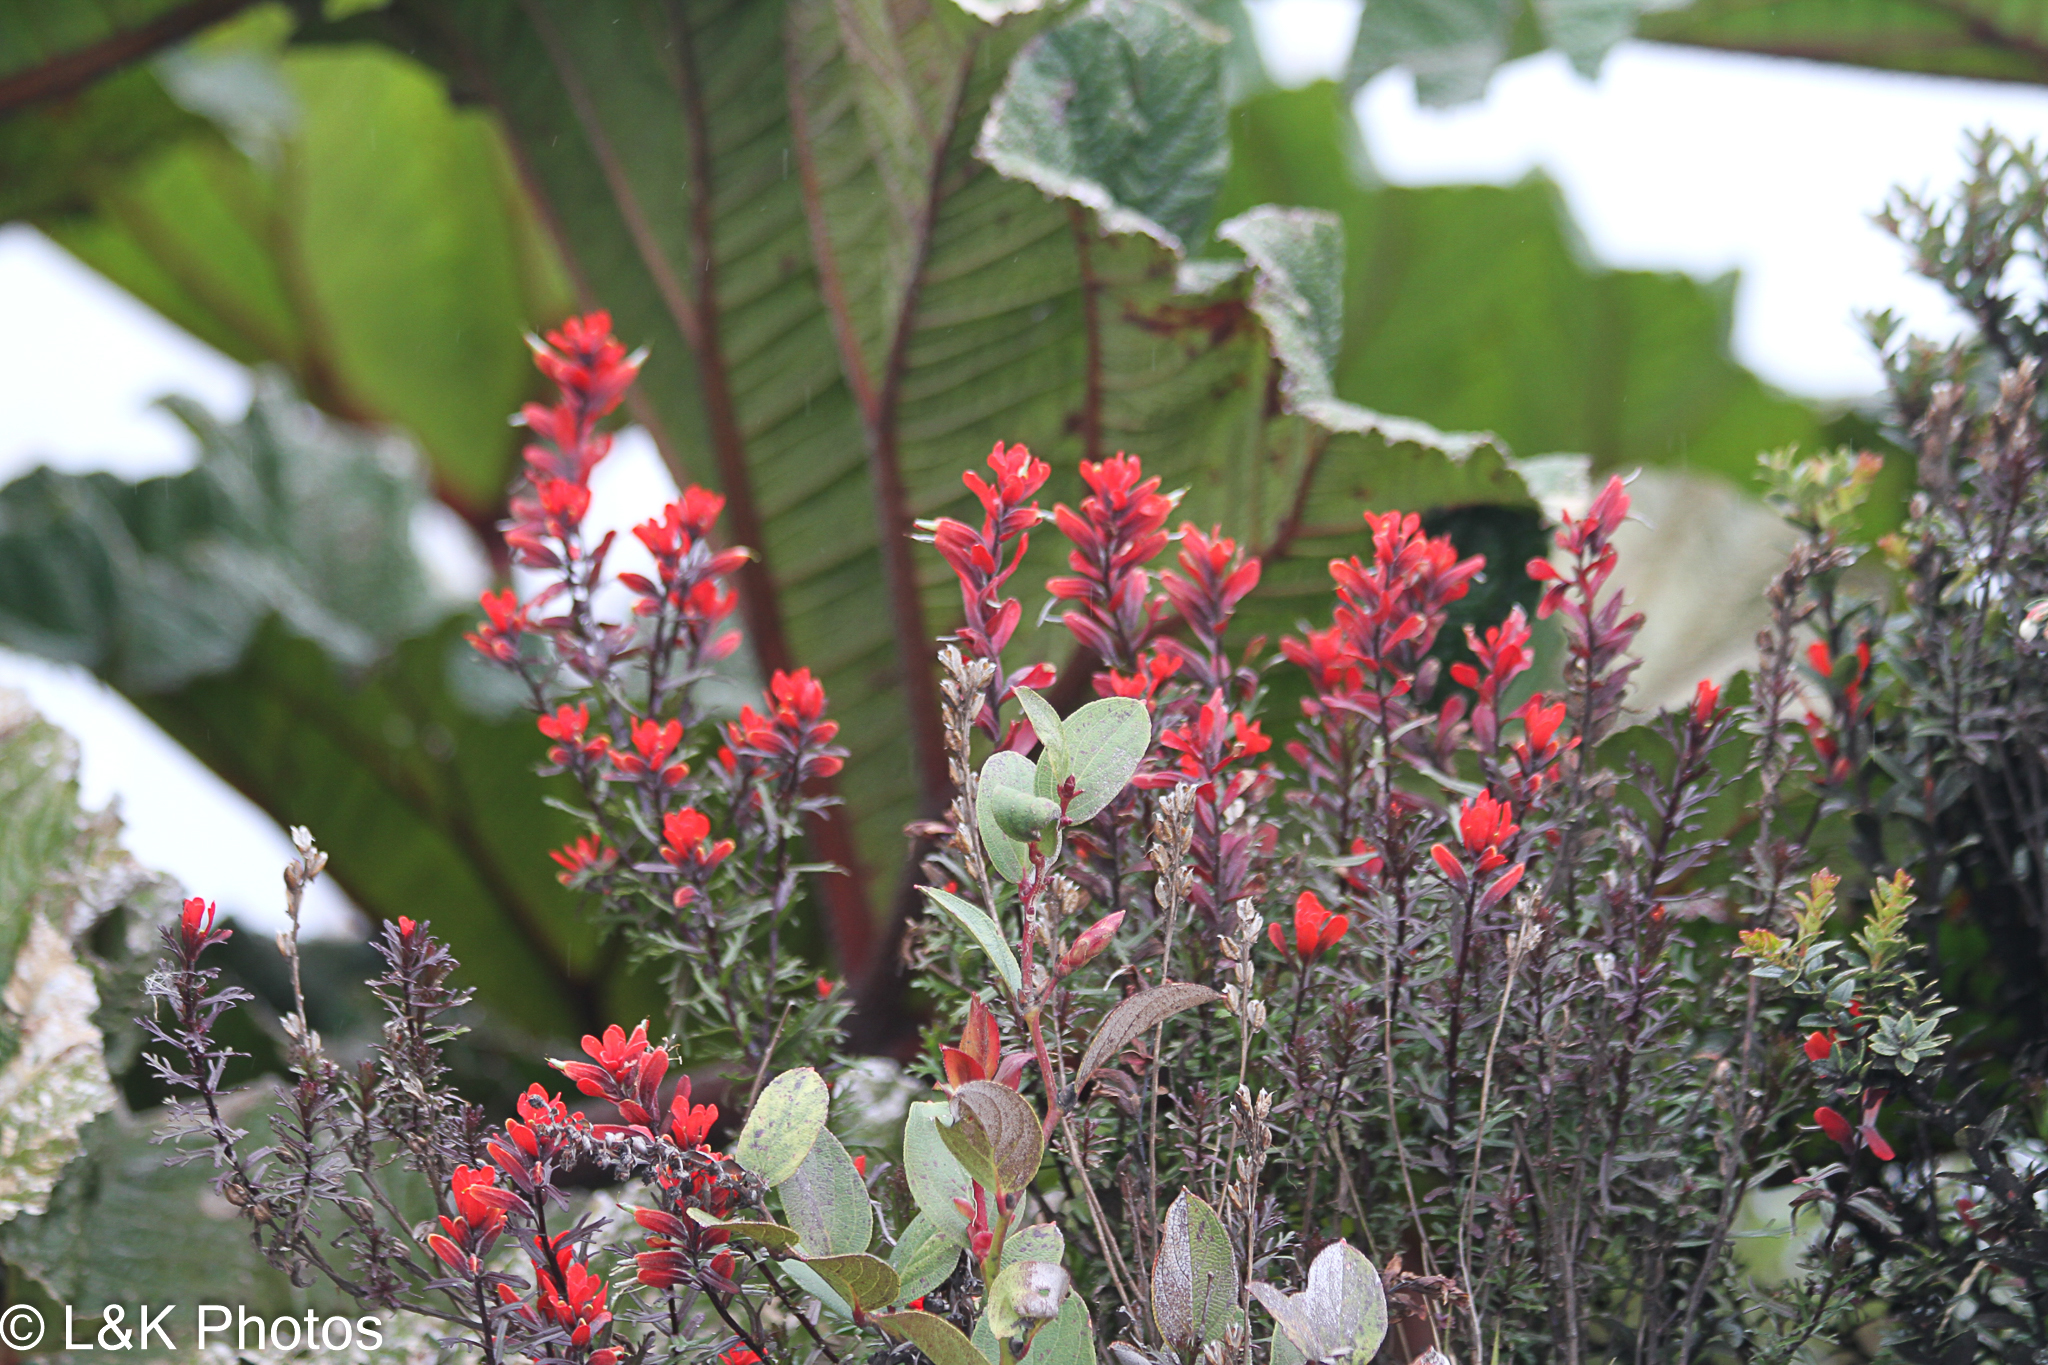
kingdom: Plantae
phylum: Tracheophyta
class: Magnoliopsida
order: Lamiales
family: Orobanchaceae
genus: Castilleja
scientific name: Castilleja irasuensis
